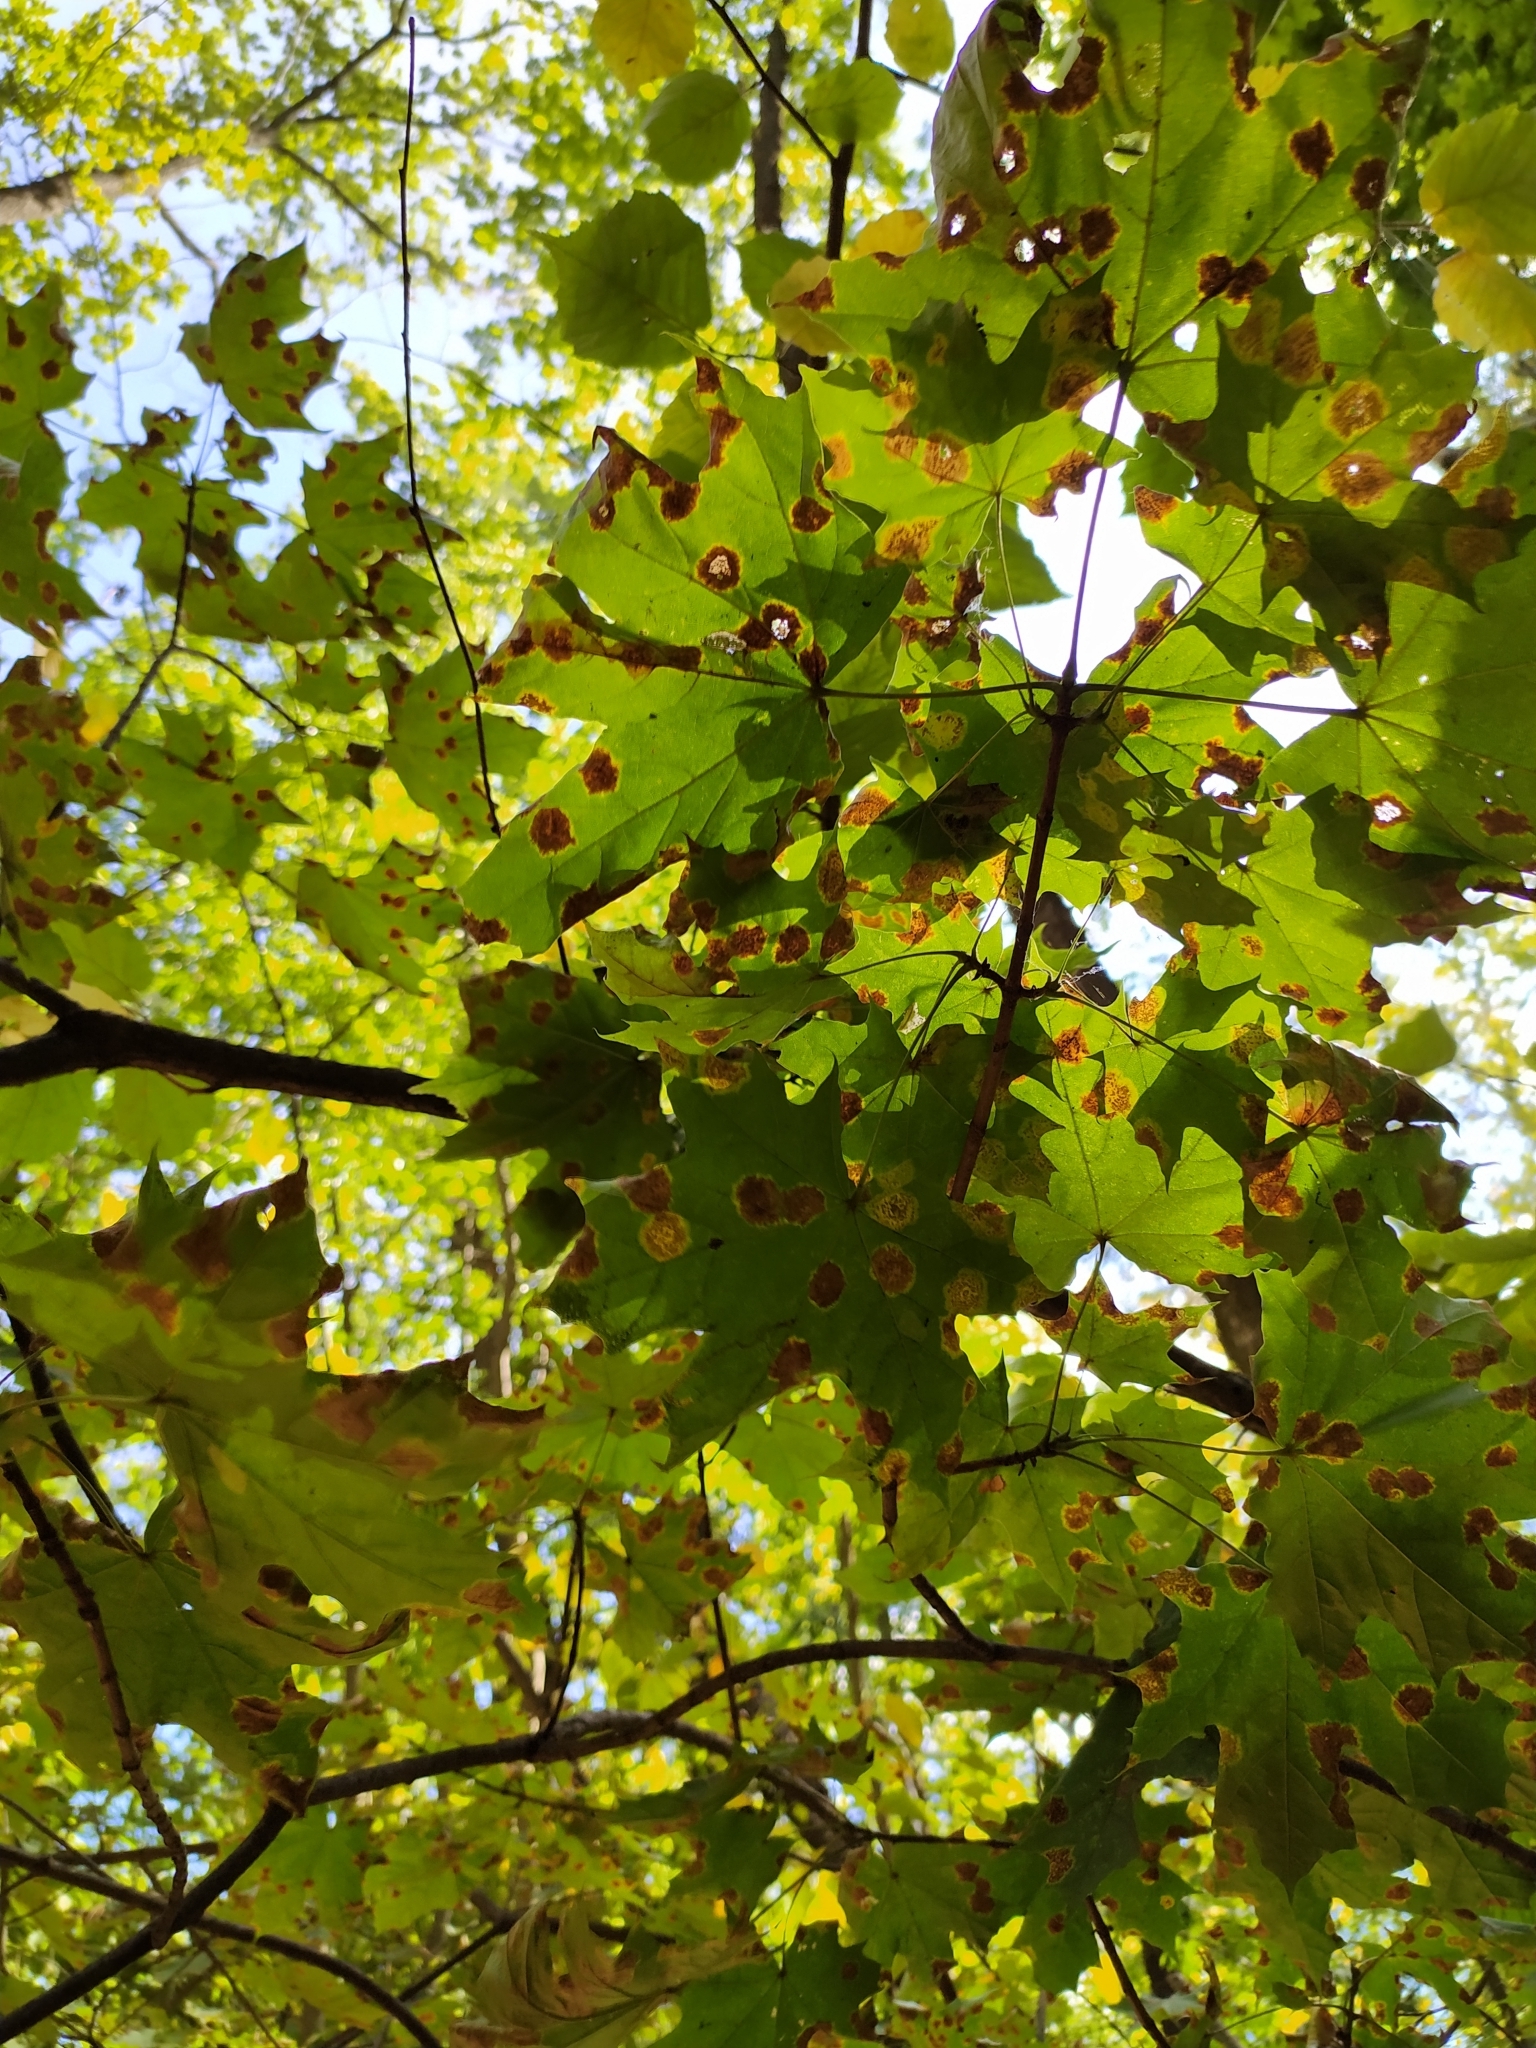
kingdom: Fungi
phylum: Ascomycota
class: Leotiomycetes
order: Rhytismatales
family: Rhytismataceae
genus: Rhytisma
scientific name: Rhytisma acerinum
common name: European tar spot
